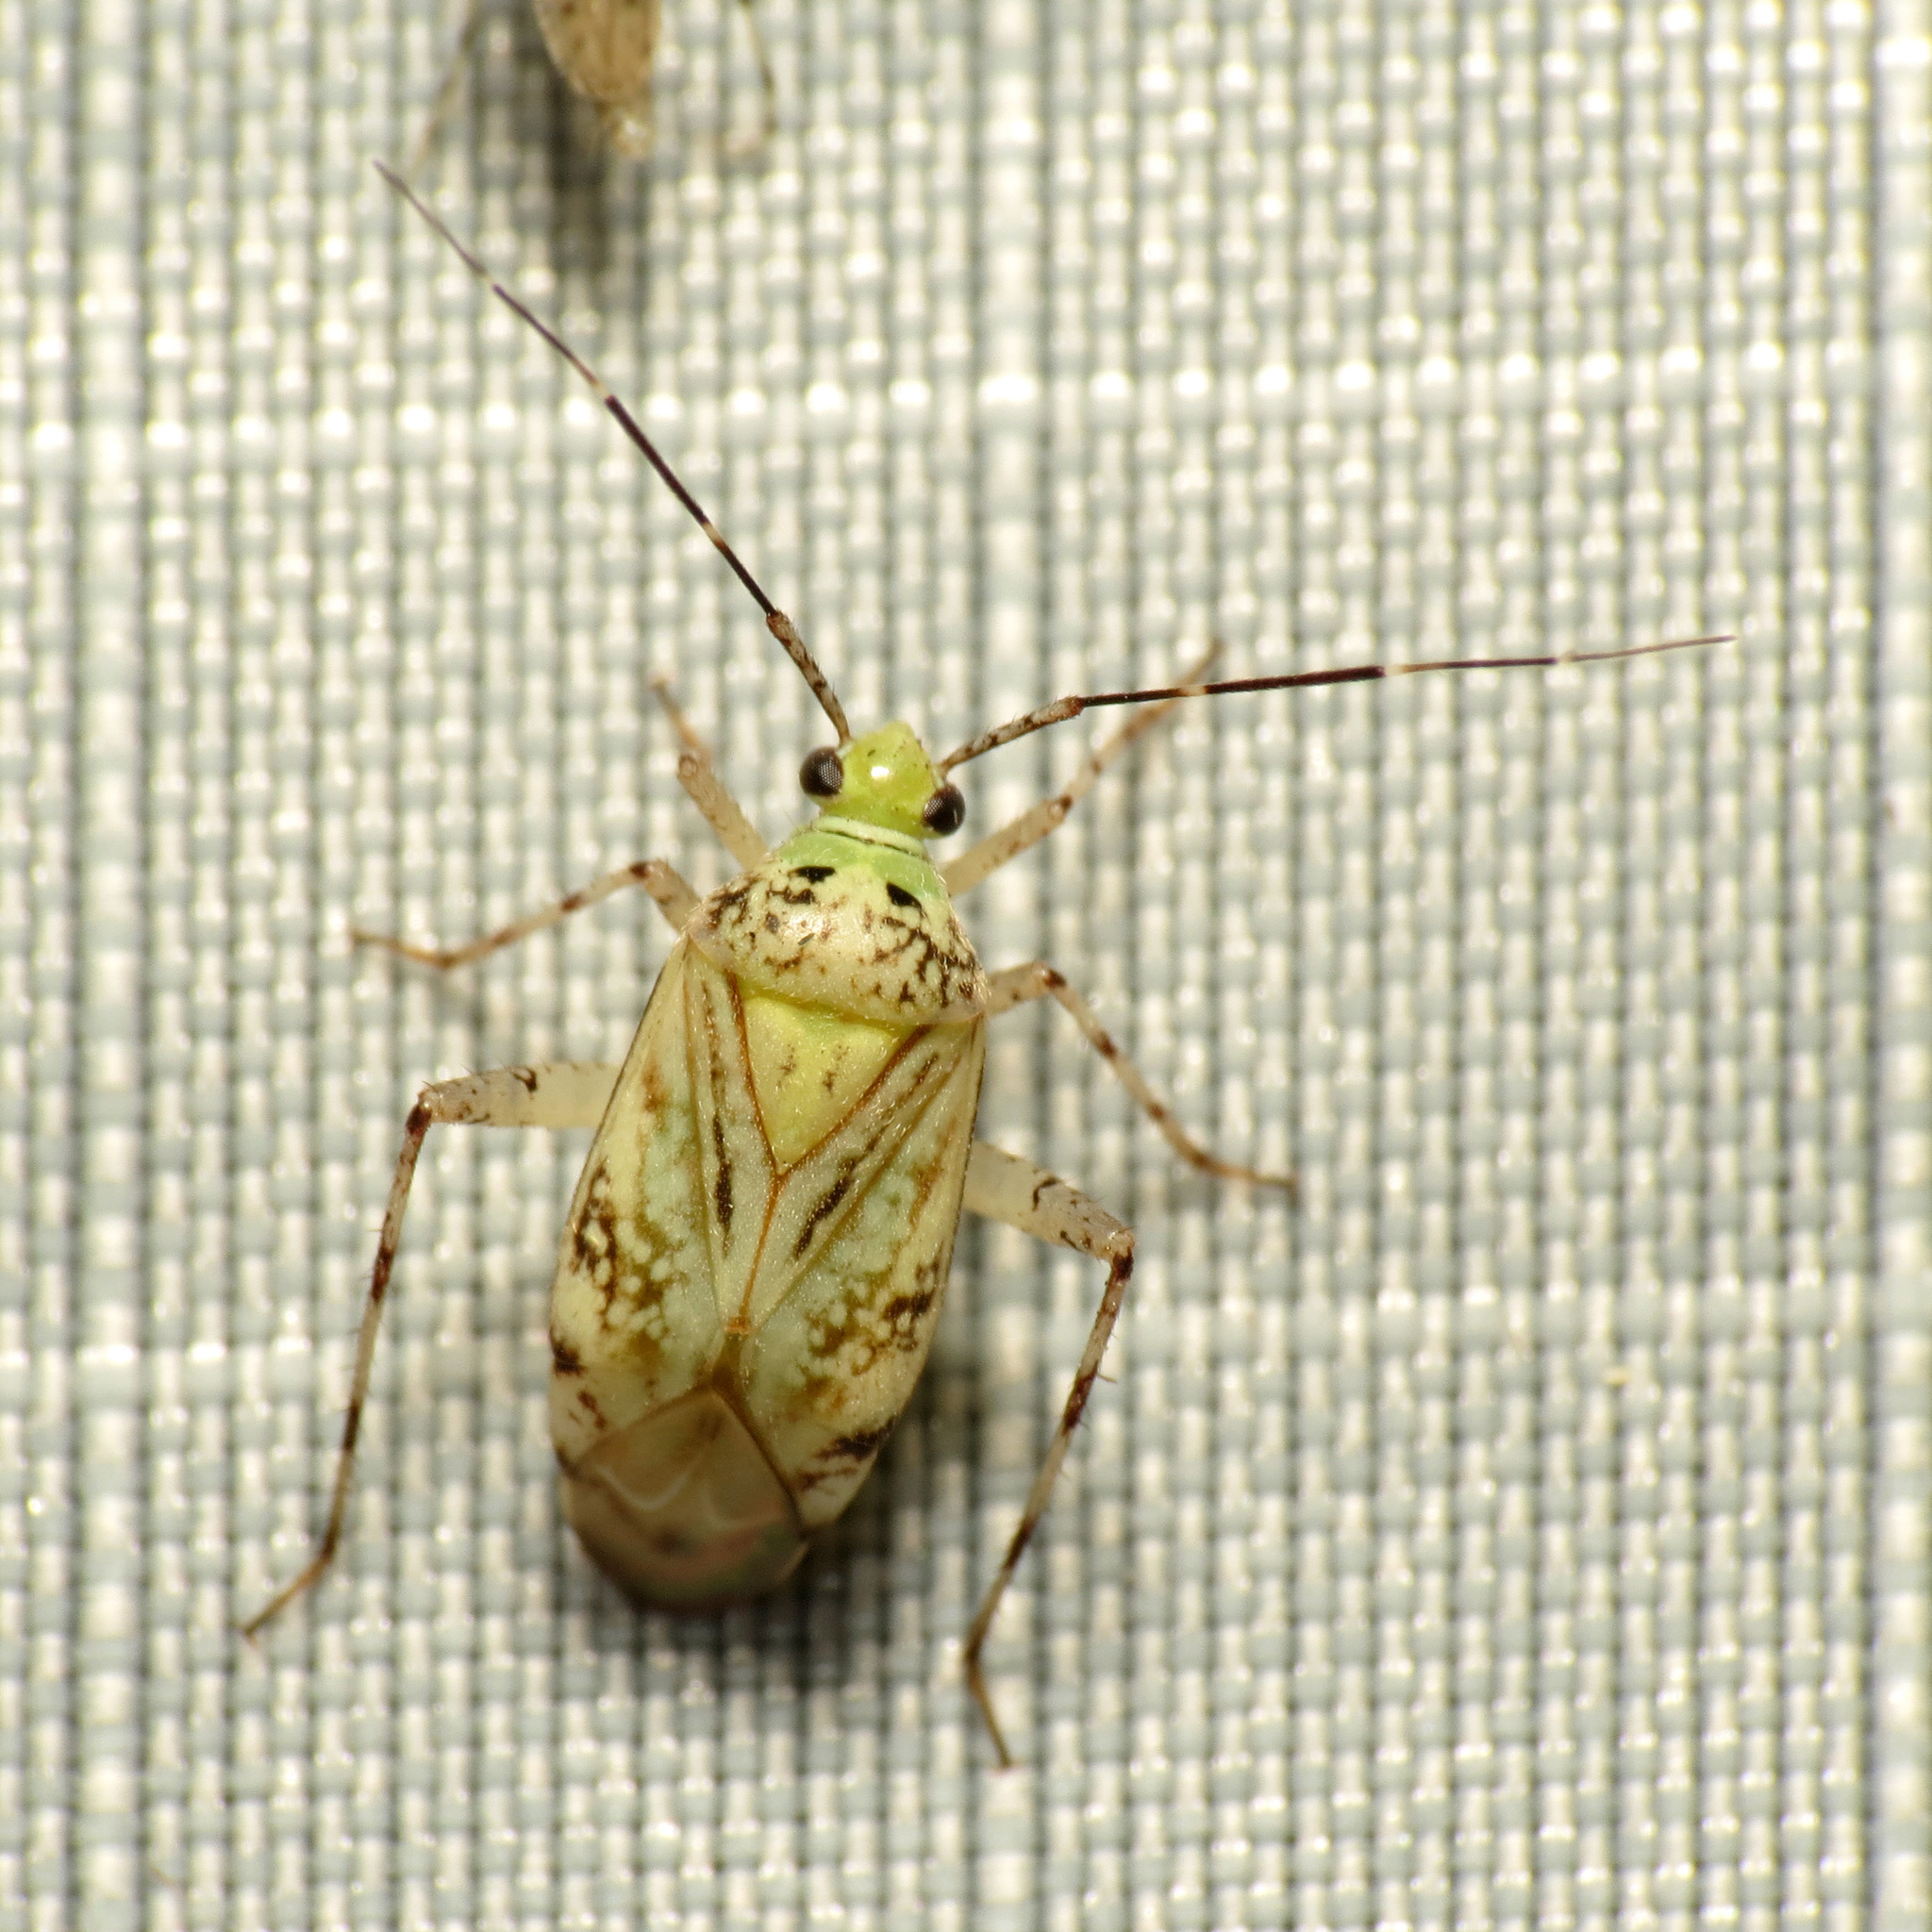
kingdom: Animalia
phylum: Arthropoda
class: Insecta
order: Hemiptera
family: Miridae
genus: Taedia
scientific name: Taedia marmorata
